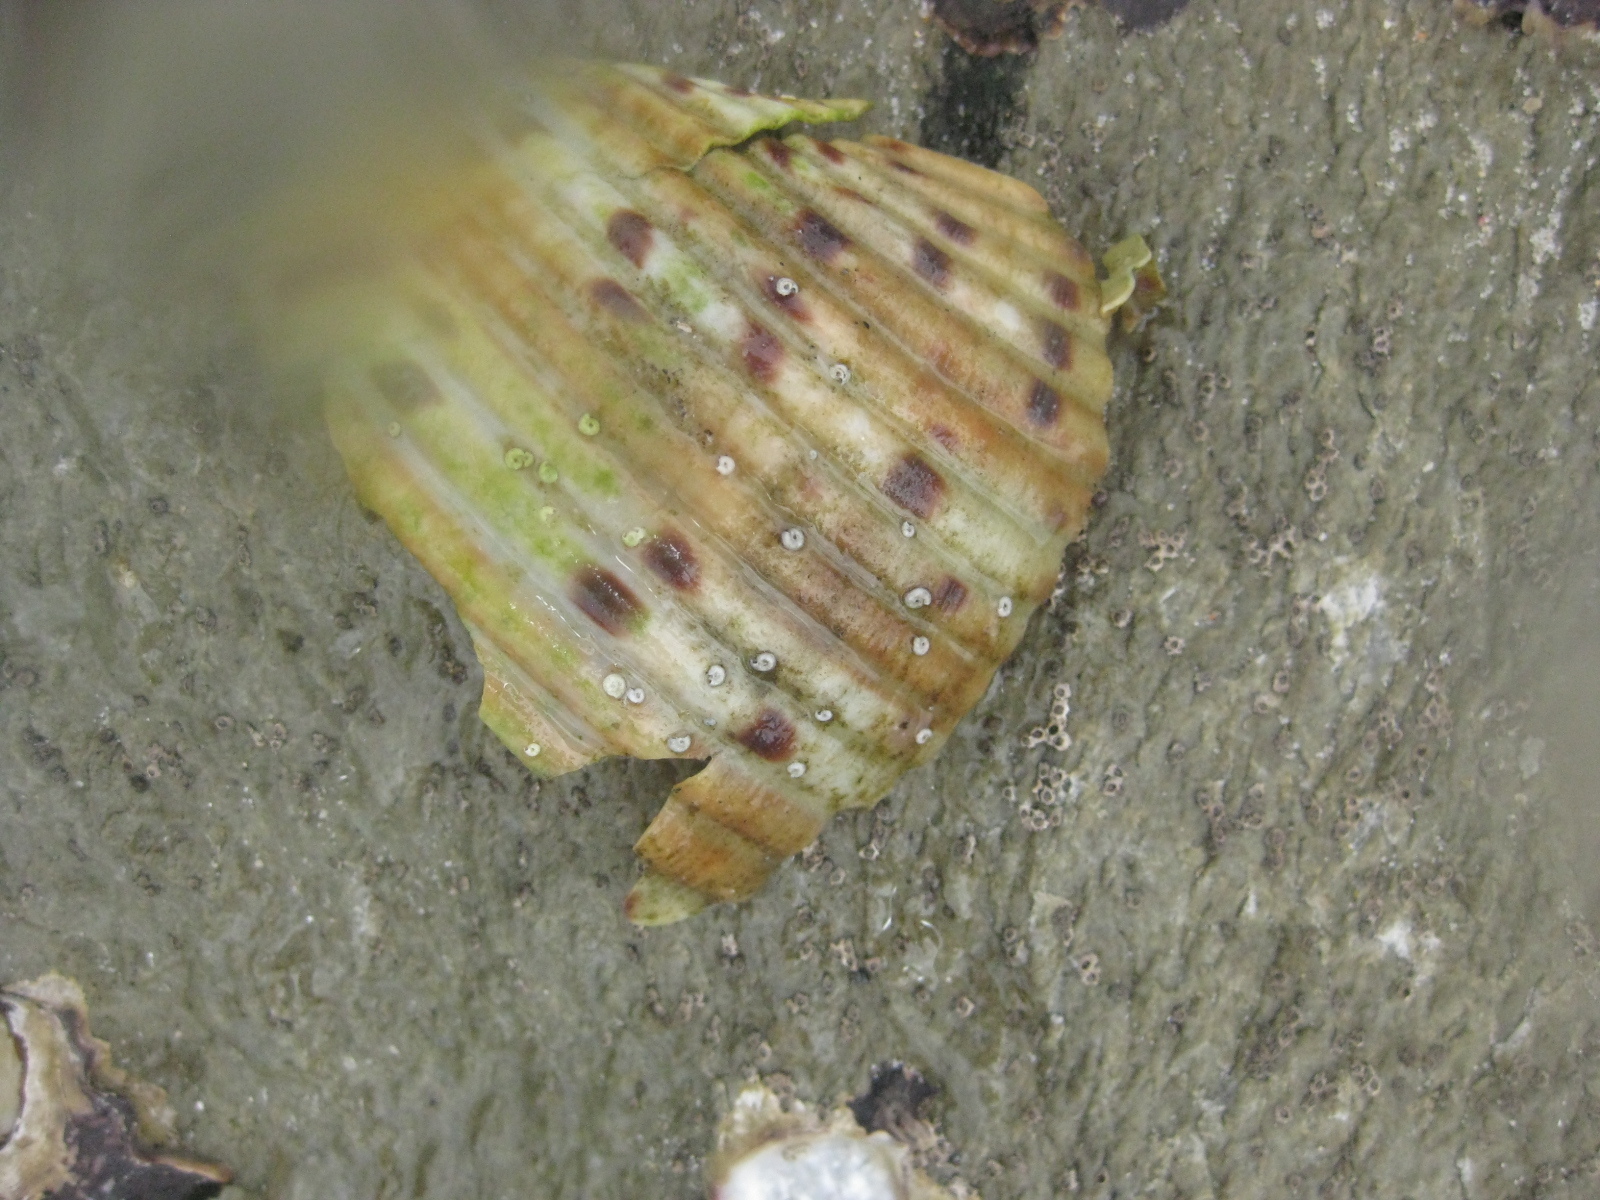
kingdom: Animalia
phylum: Mollusca
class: Gastropoda
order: Littorinimorpha
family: Tonnidae
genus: Tonna
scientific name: Tonna tankervillii
